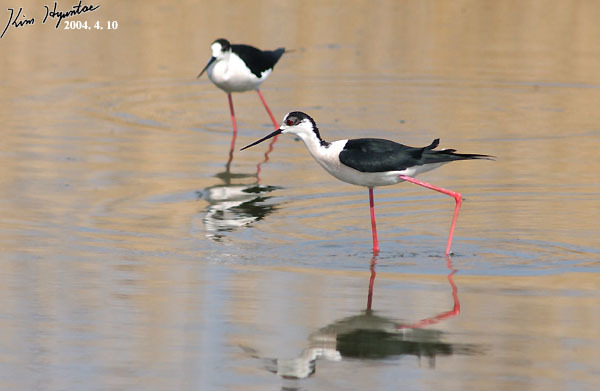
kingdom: Animalia
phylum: Chordata
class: Aves
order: Charadriiformes
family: Recurvirostridae
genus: Himantopus
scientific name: Himantopus himantopus
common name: Black-winged stilt
